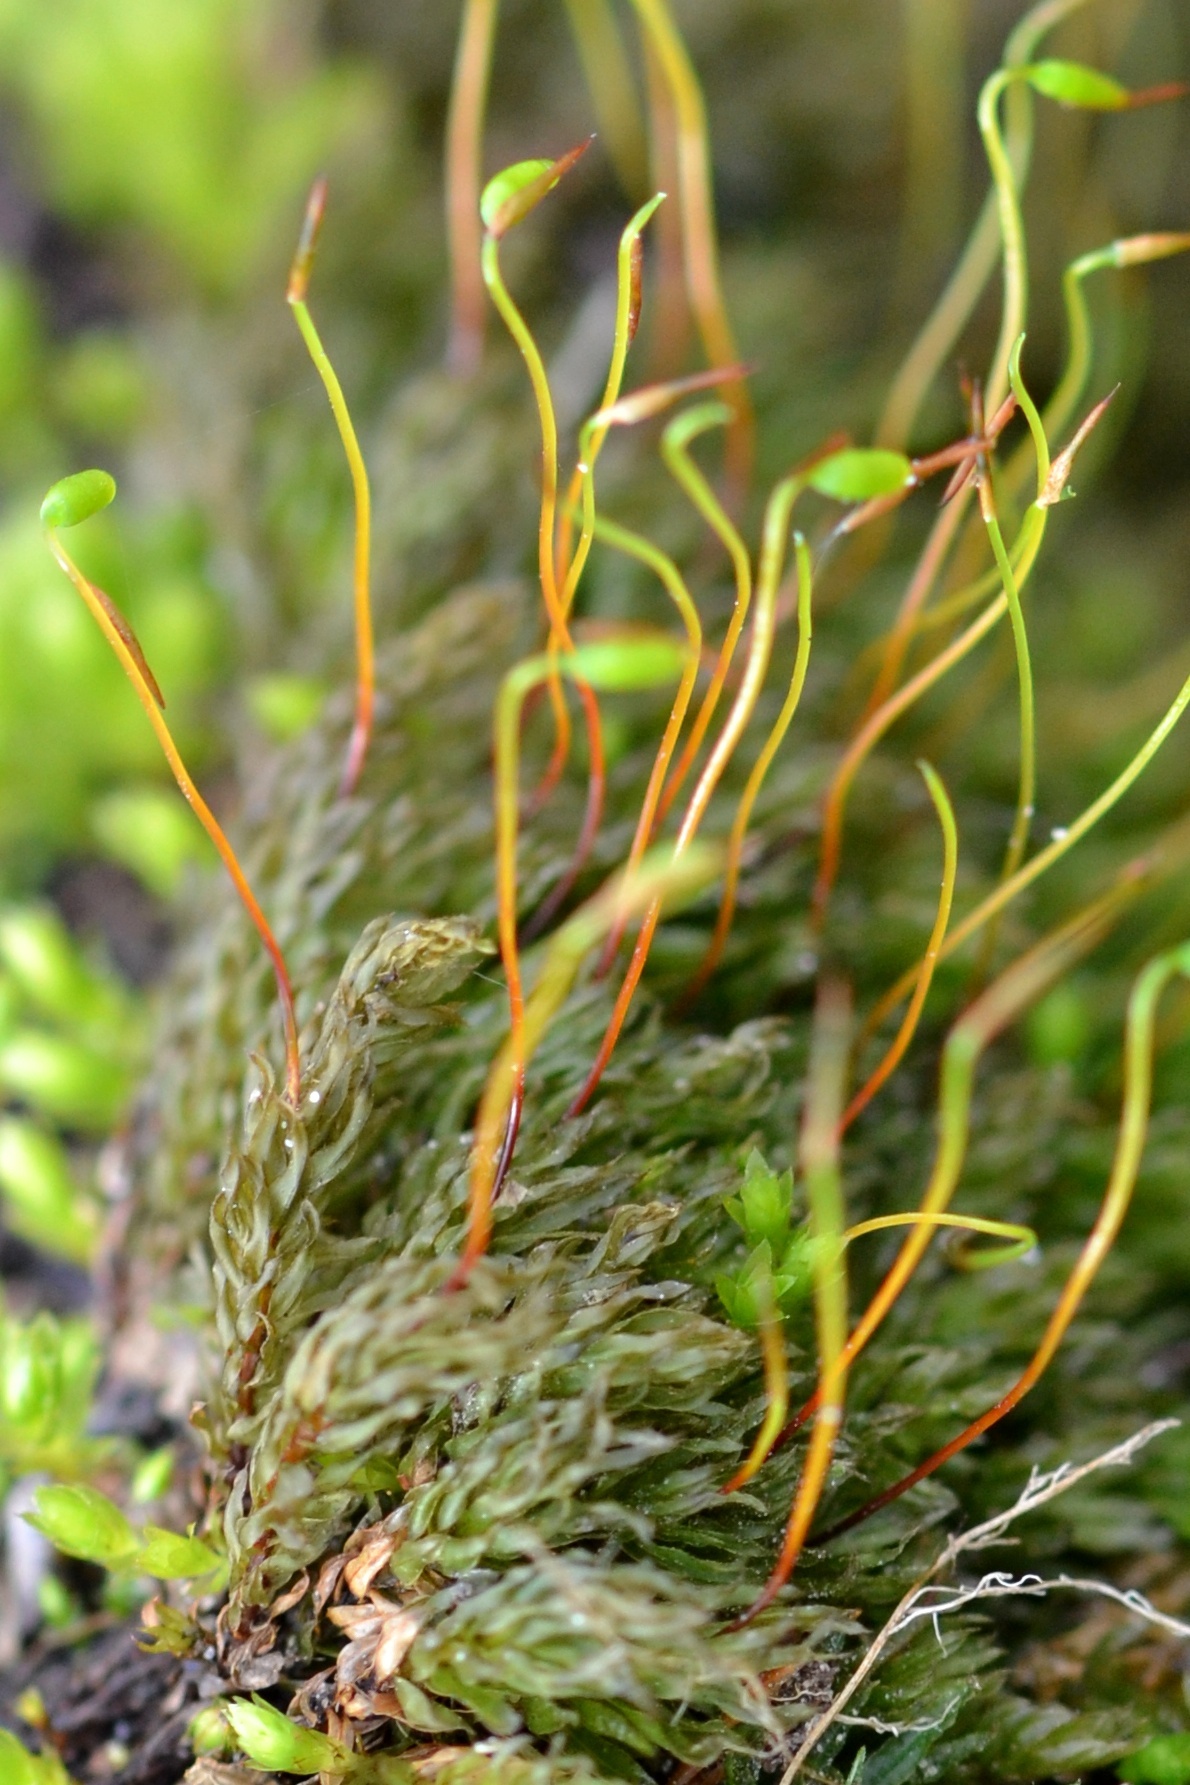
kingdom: Plantae
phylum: Bryophyta
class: Bryopsida
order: Bryales
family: Mniaceae
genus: Mnium
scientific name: Mnium hornum
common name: Swan's-neck leafy moss
